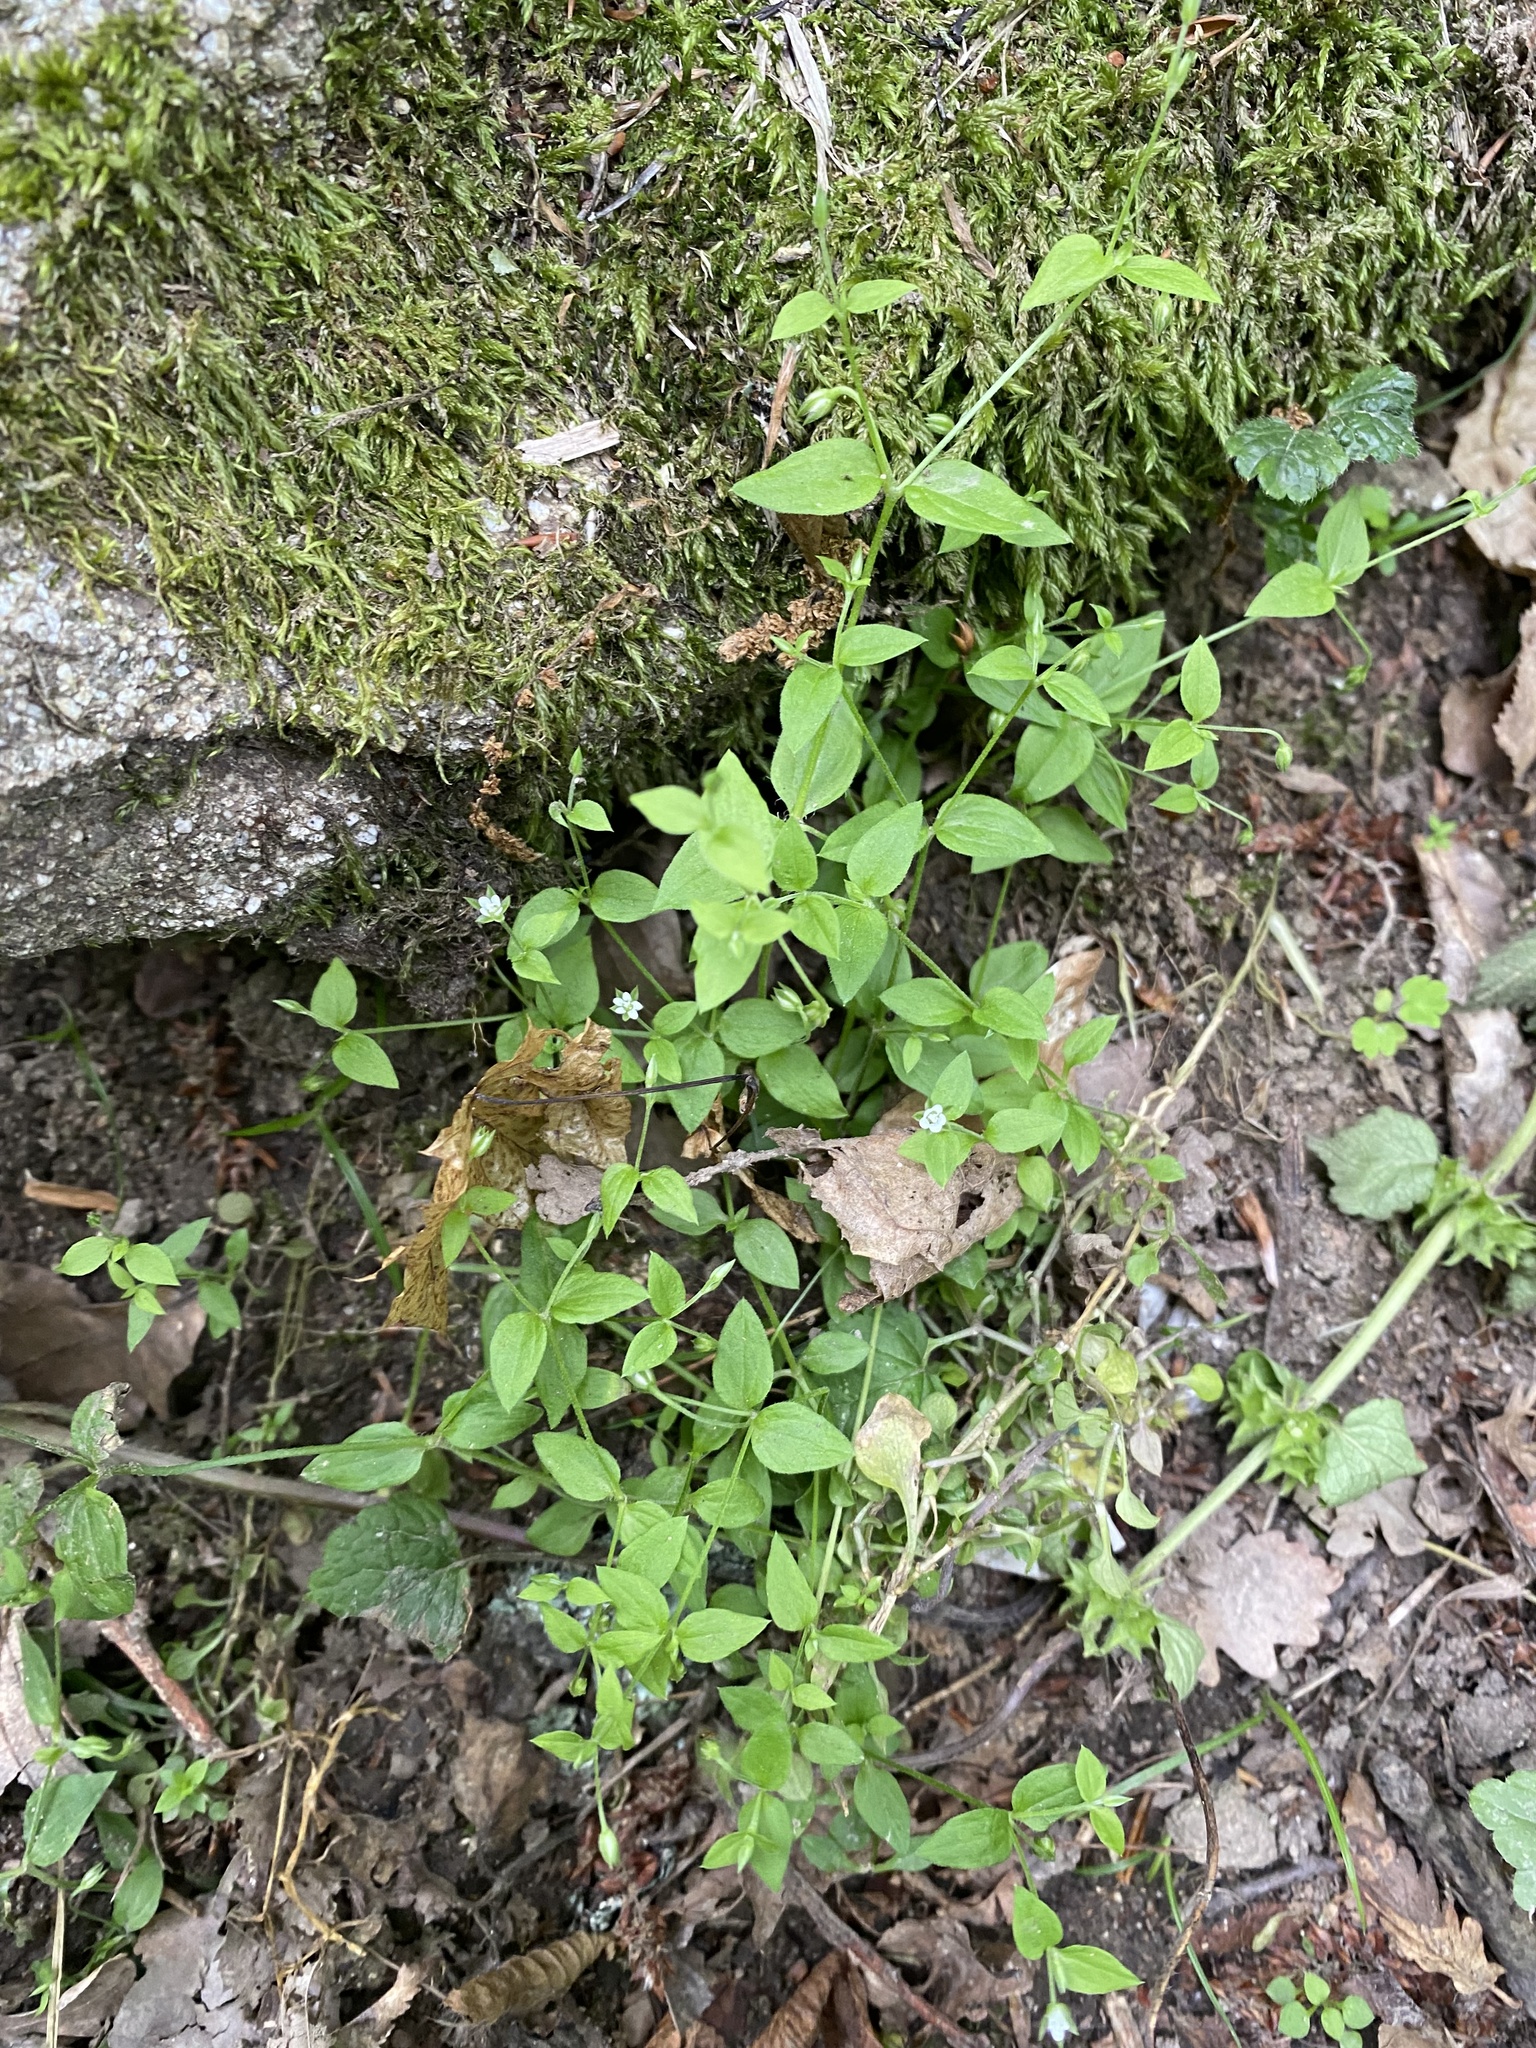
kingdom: Plantae
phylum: Tracheophyta
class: Magnoliopsida
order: Caryophyllales
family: Caryophyllaceae
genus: Moehringia
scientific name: Moehringia trinervia
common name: Three-nerved sandwort
